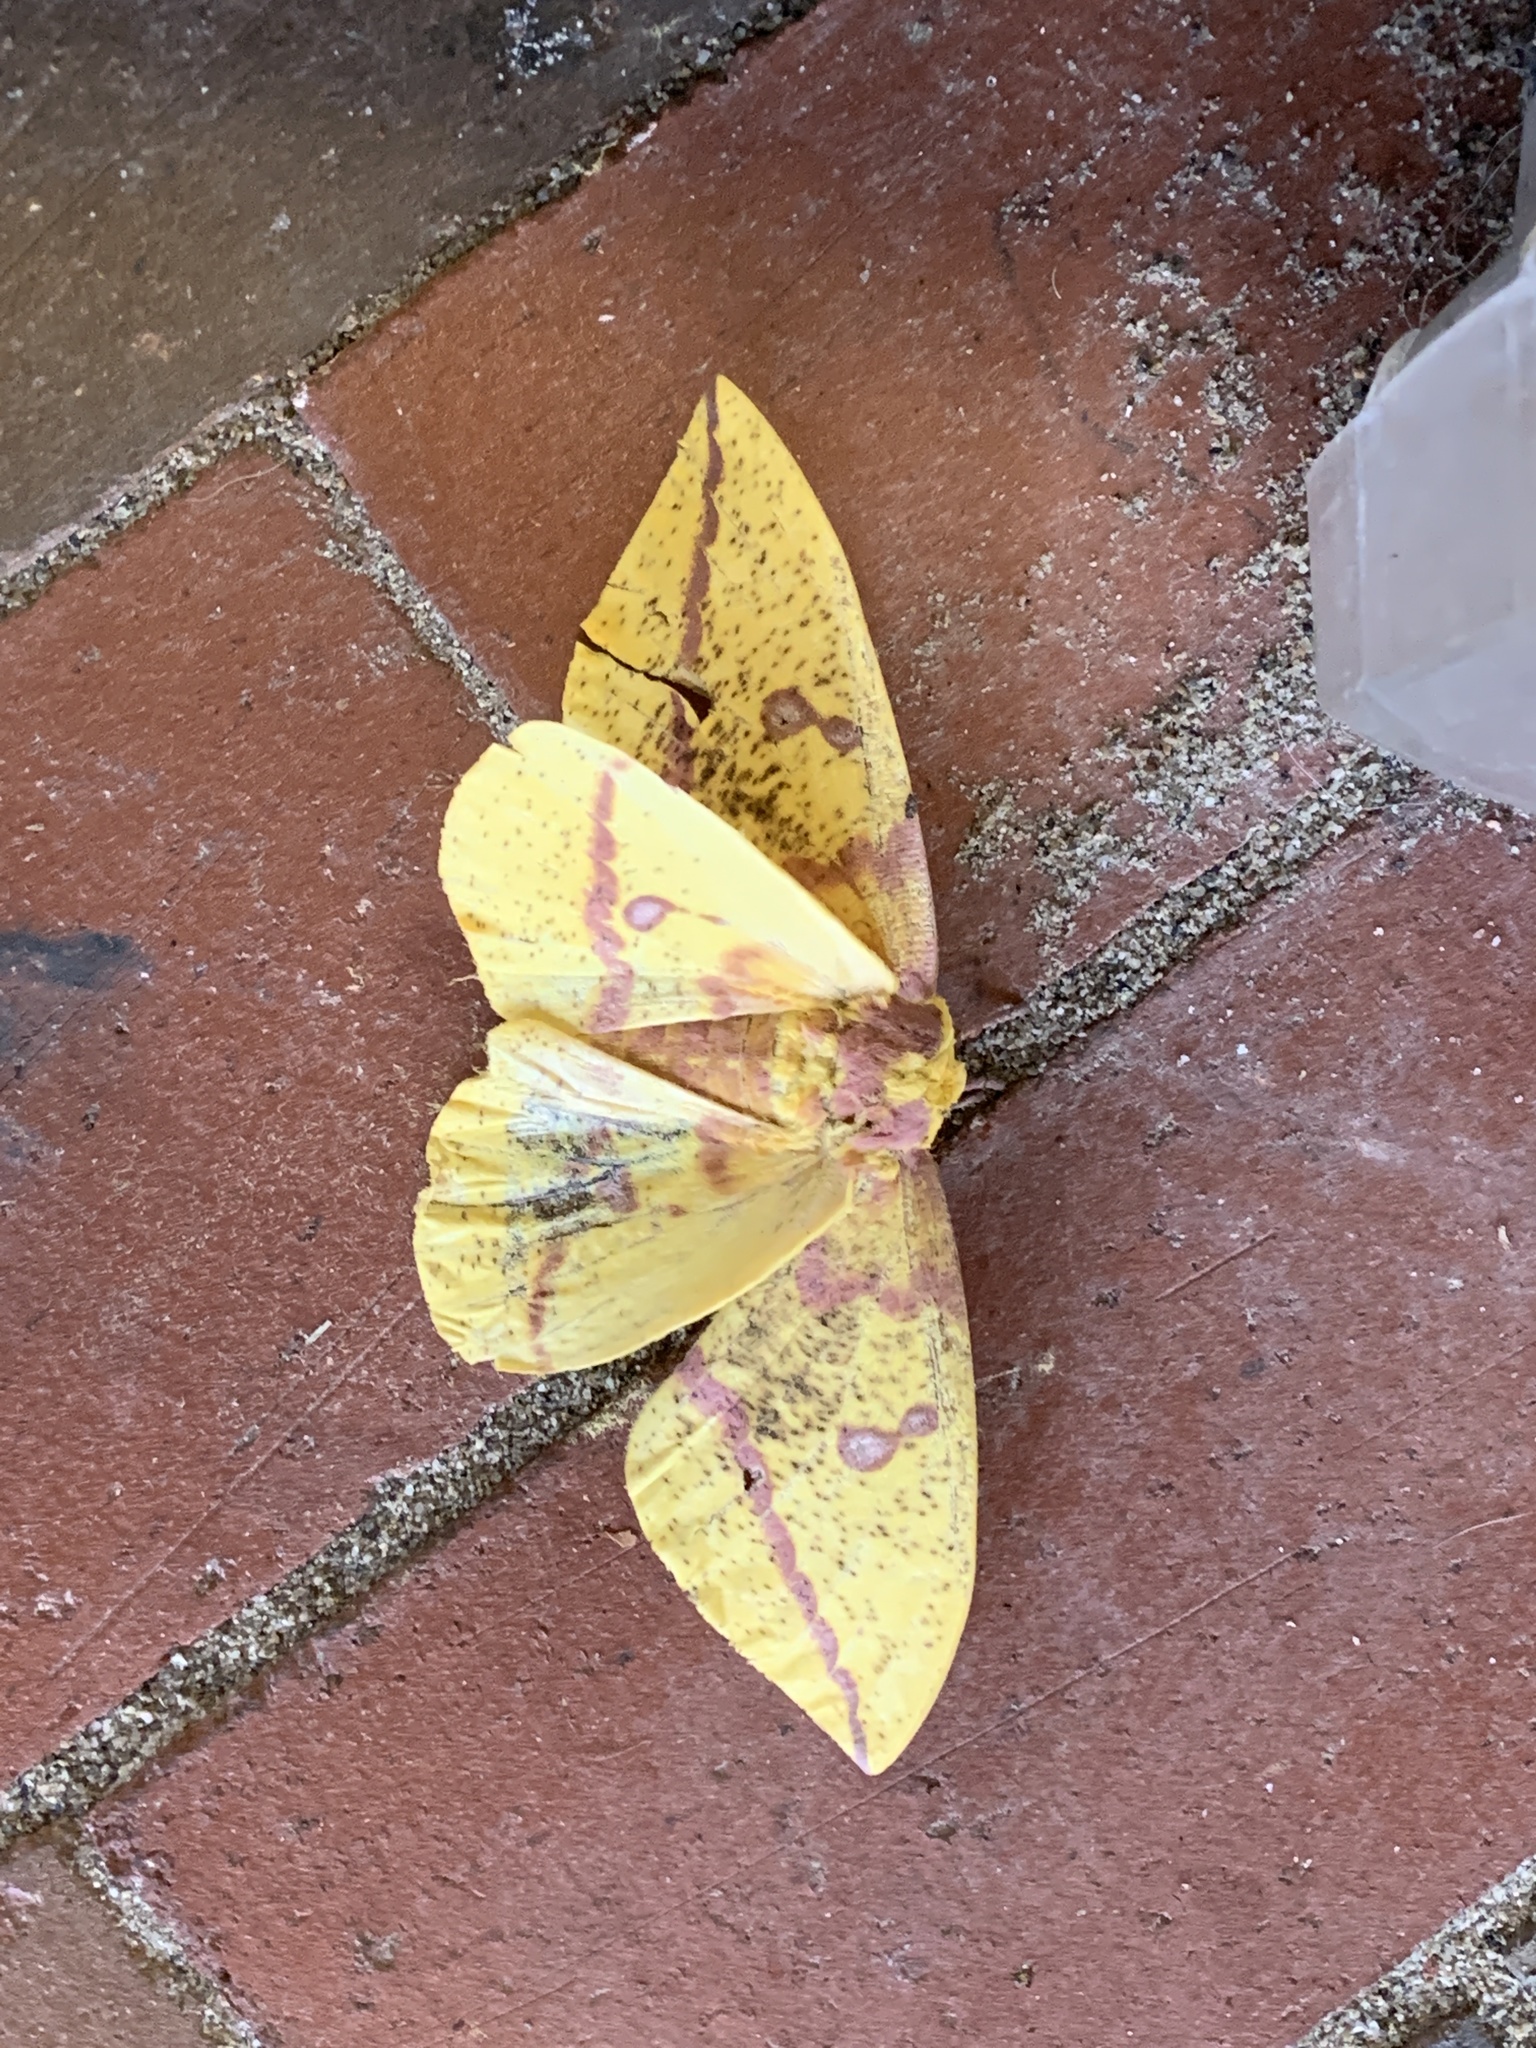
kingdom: Animalia
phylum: Arthropoda
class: Insecta
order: Lepidoptera
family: Saturniidae
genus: Eacles
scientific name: Eacles imperialis
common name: Imperial moth
